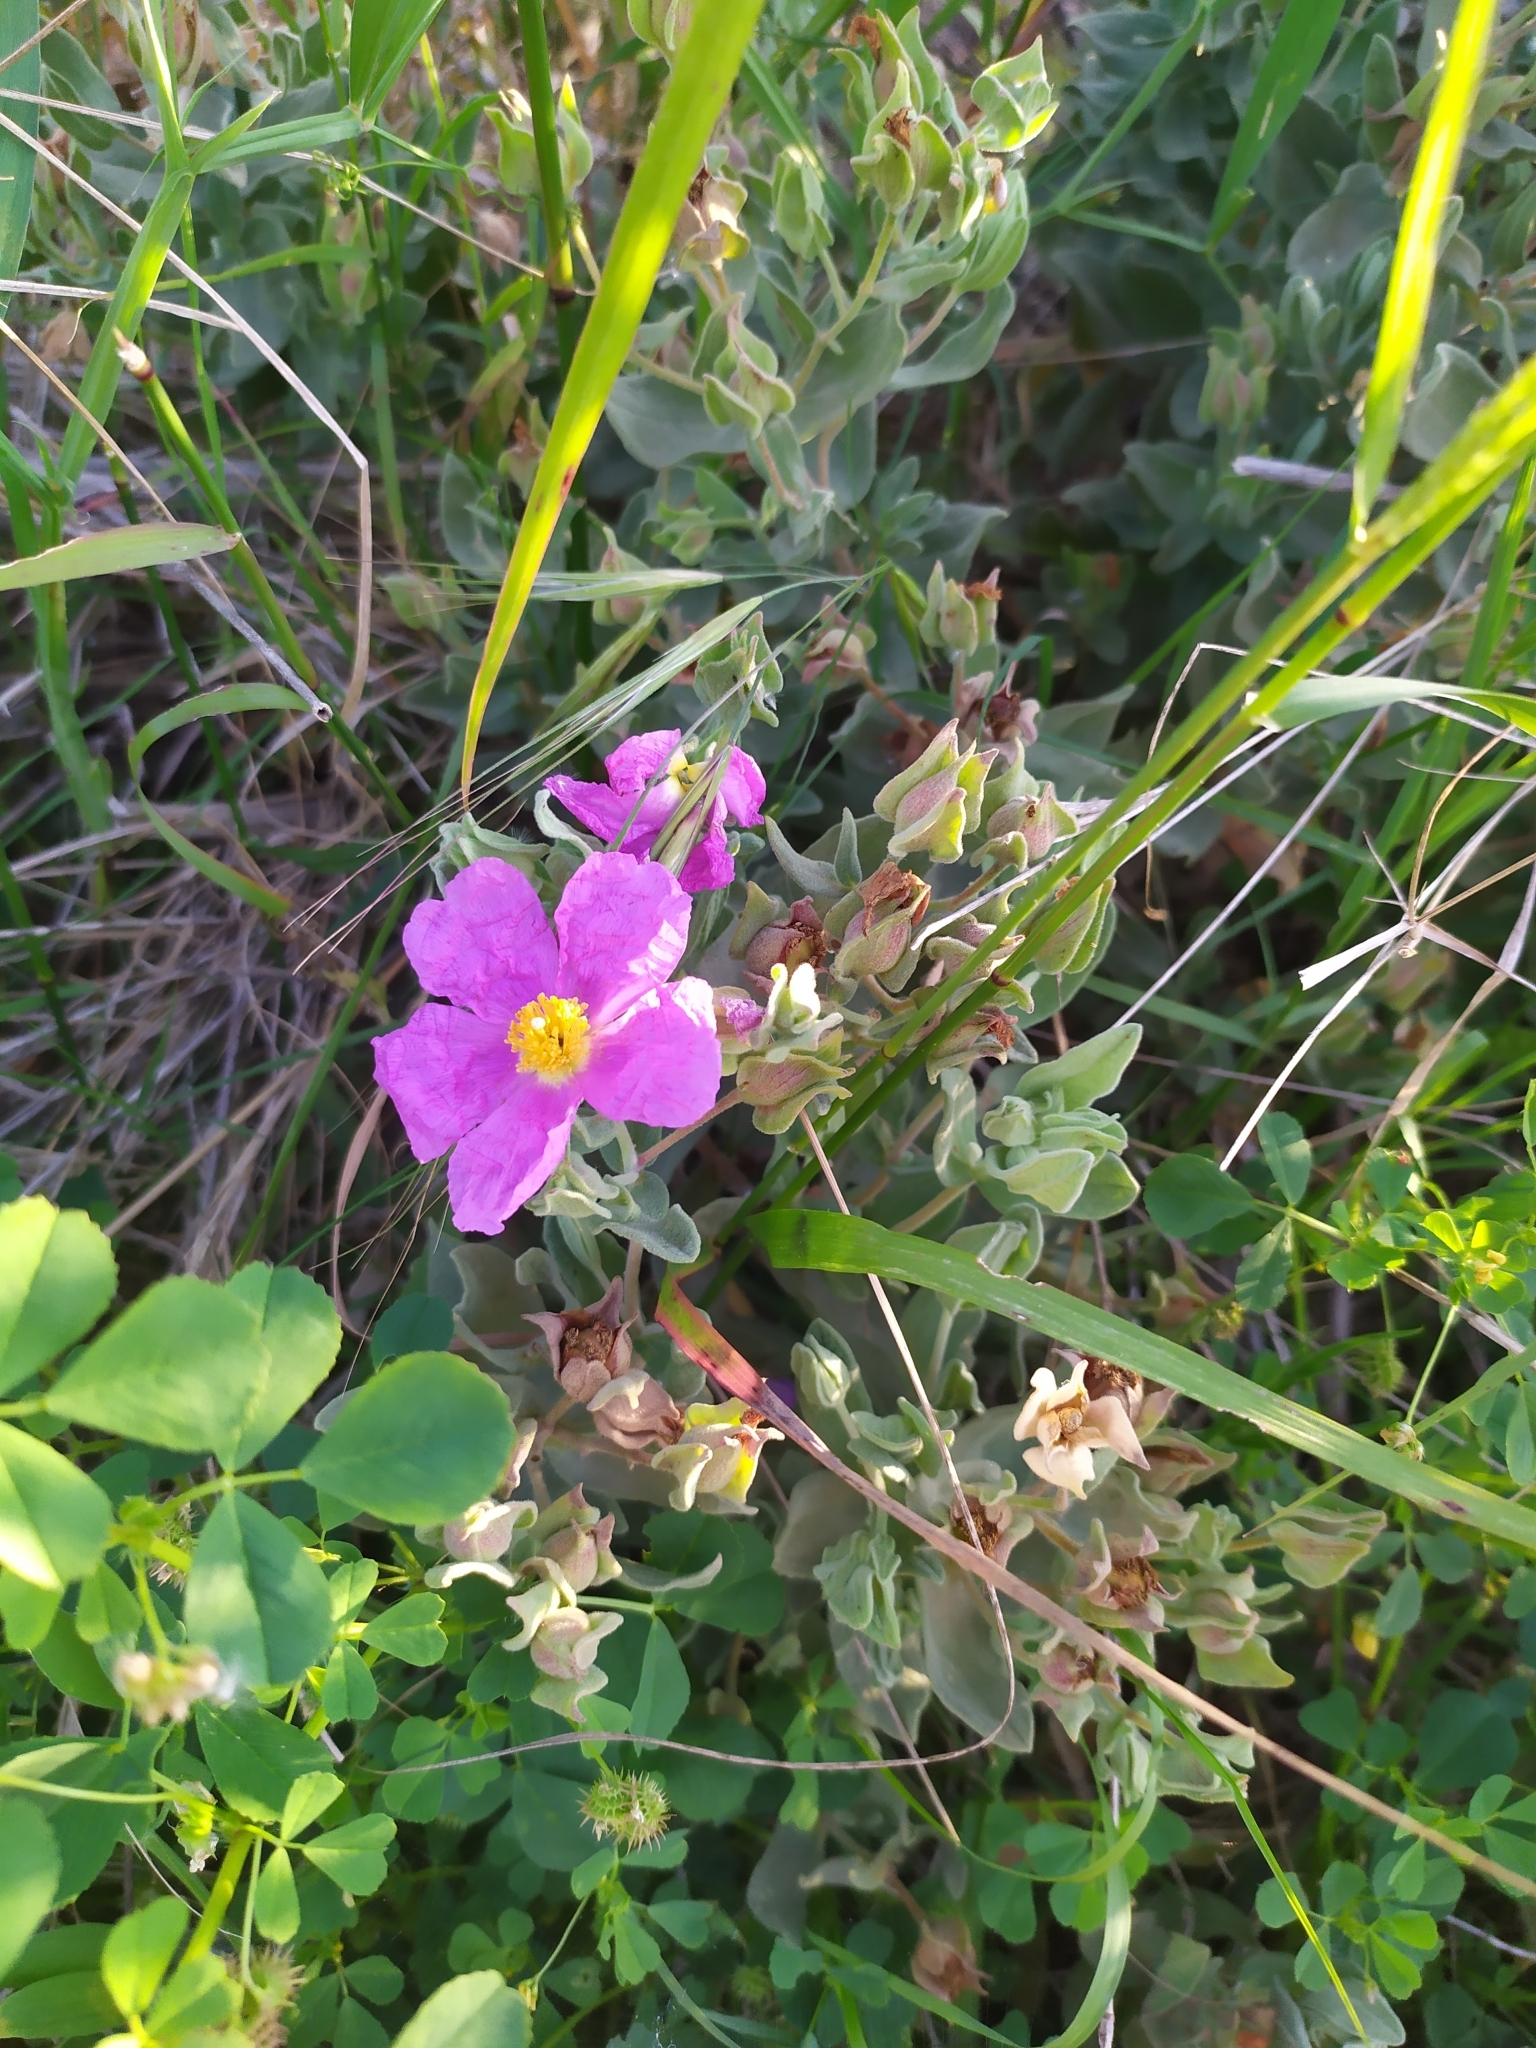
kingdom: Plantae
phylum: Tracheophyta
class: Magnoliopsida
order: Malvales
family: Cistaceae
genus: Cistus
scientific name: Cistus albidus
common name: White-leaf rock-rose
